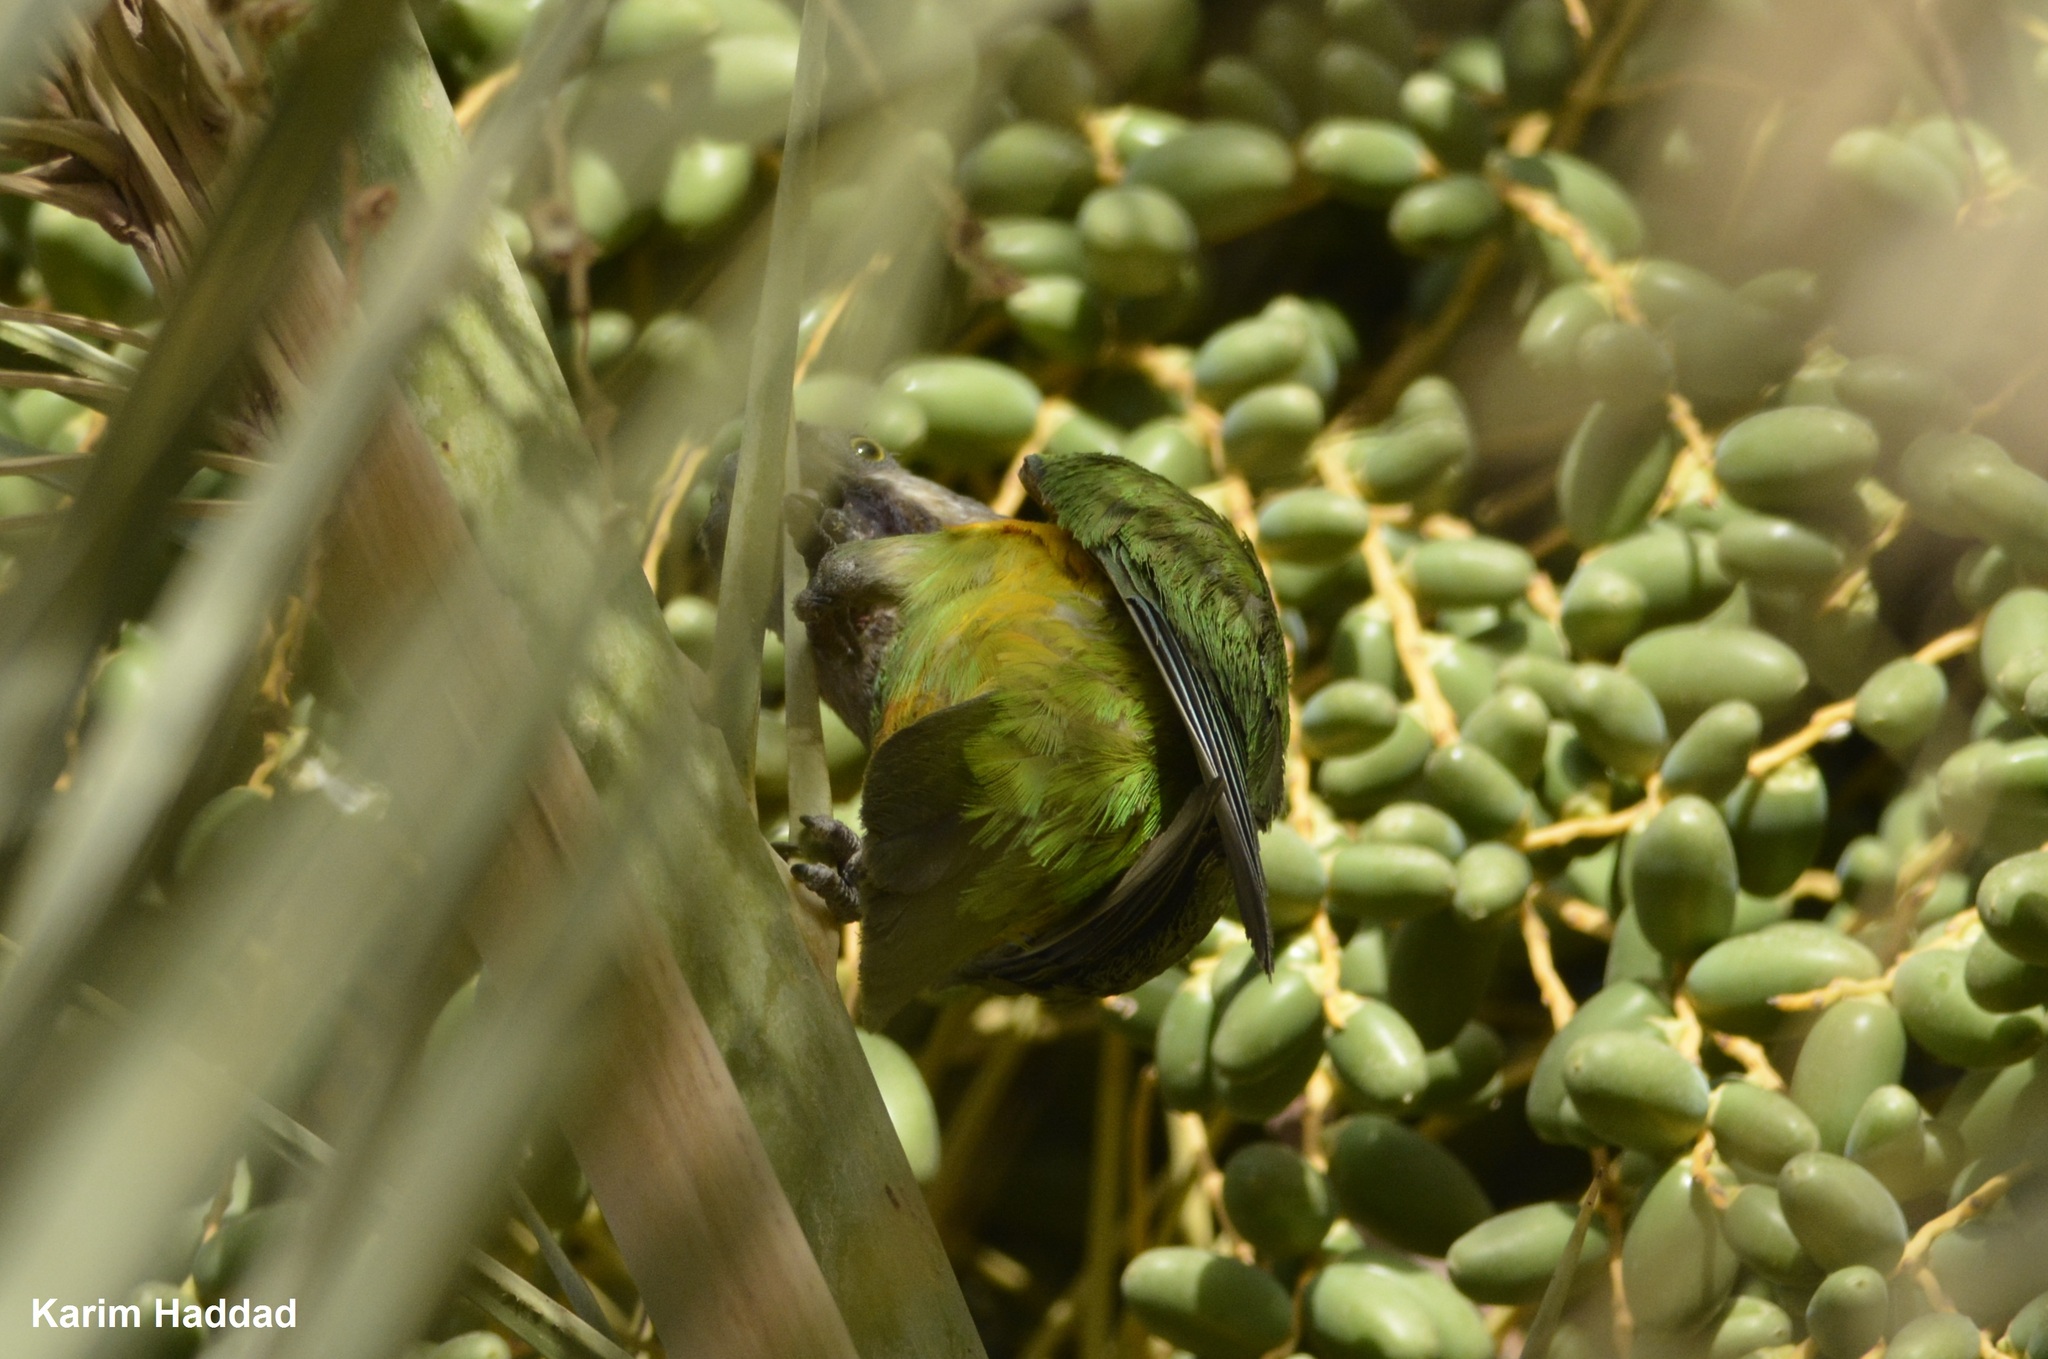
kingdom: Animalia
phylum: Chordata
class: Aves
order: Psittaciformes
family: Psittacidae
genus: Poicephalus
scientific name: Poicephalus senegalus
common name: Senegal parrot
